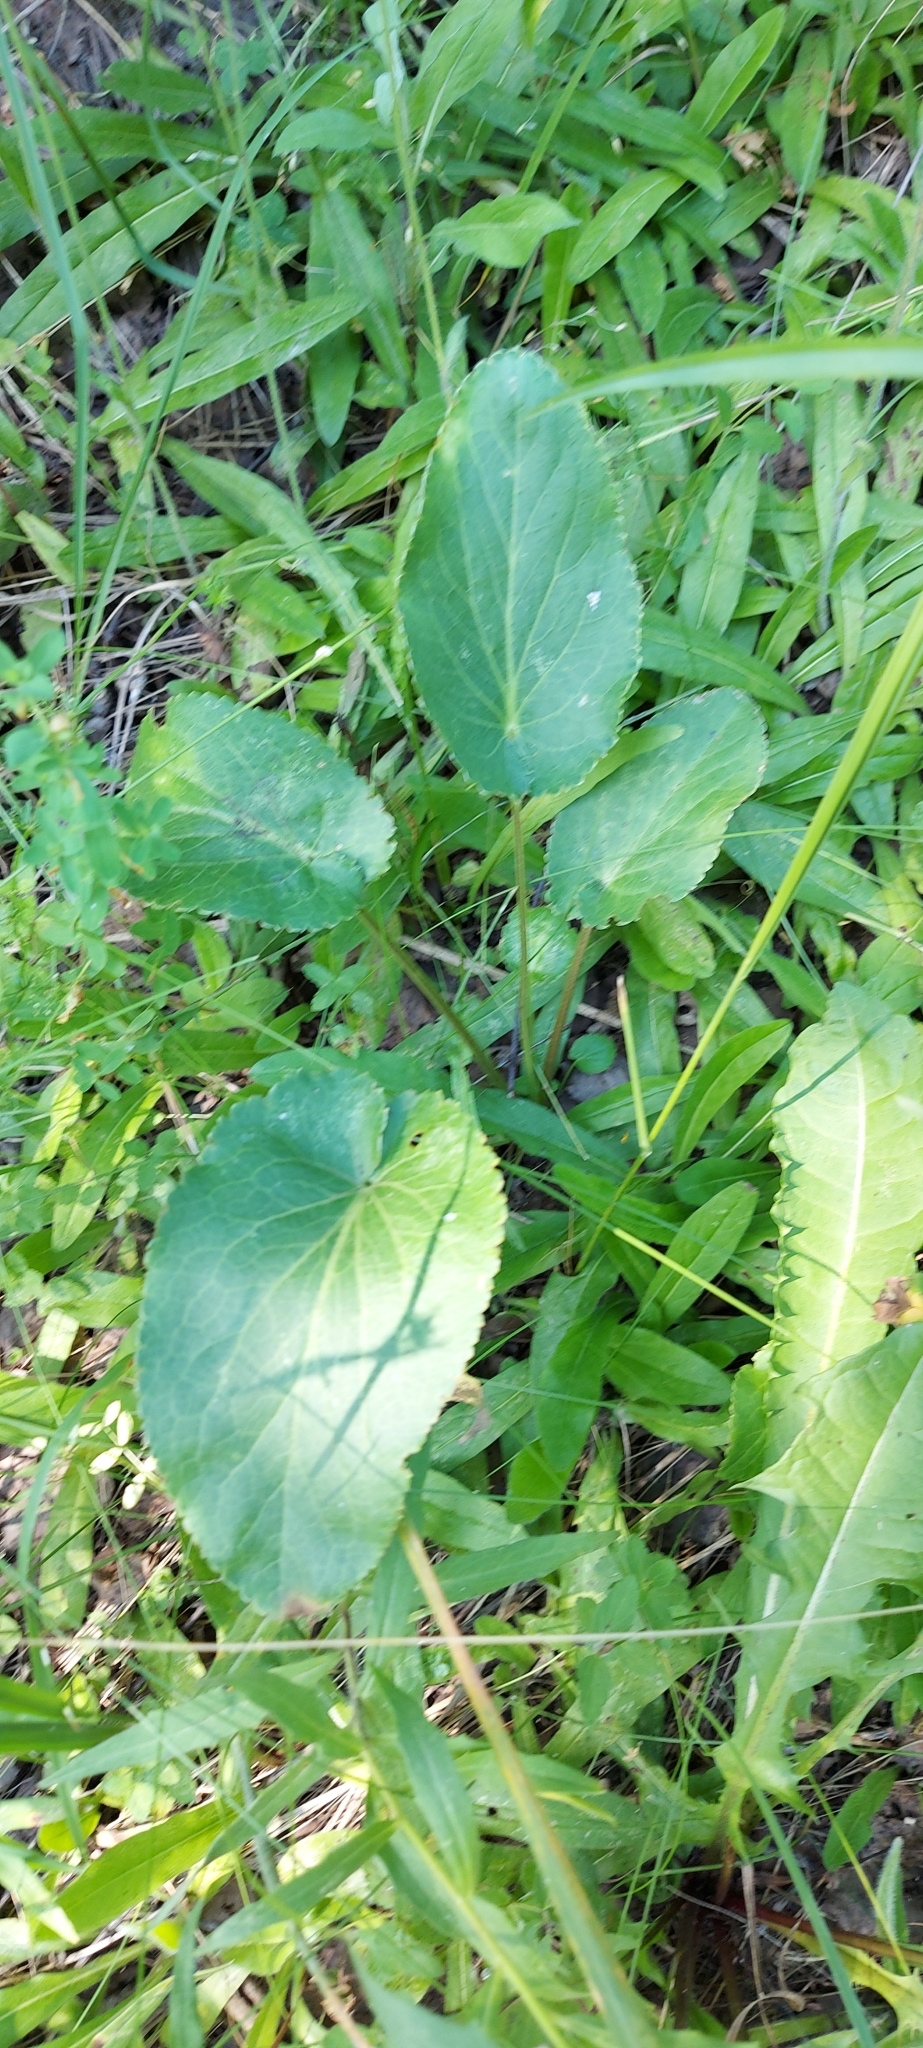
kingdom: Plantae
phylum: Tracheophyta
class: Magnoliopsida
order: Apiales
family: Apiaceae
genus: Eryngium
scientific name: Eryngium planum
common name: Blue eryngo
